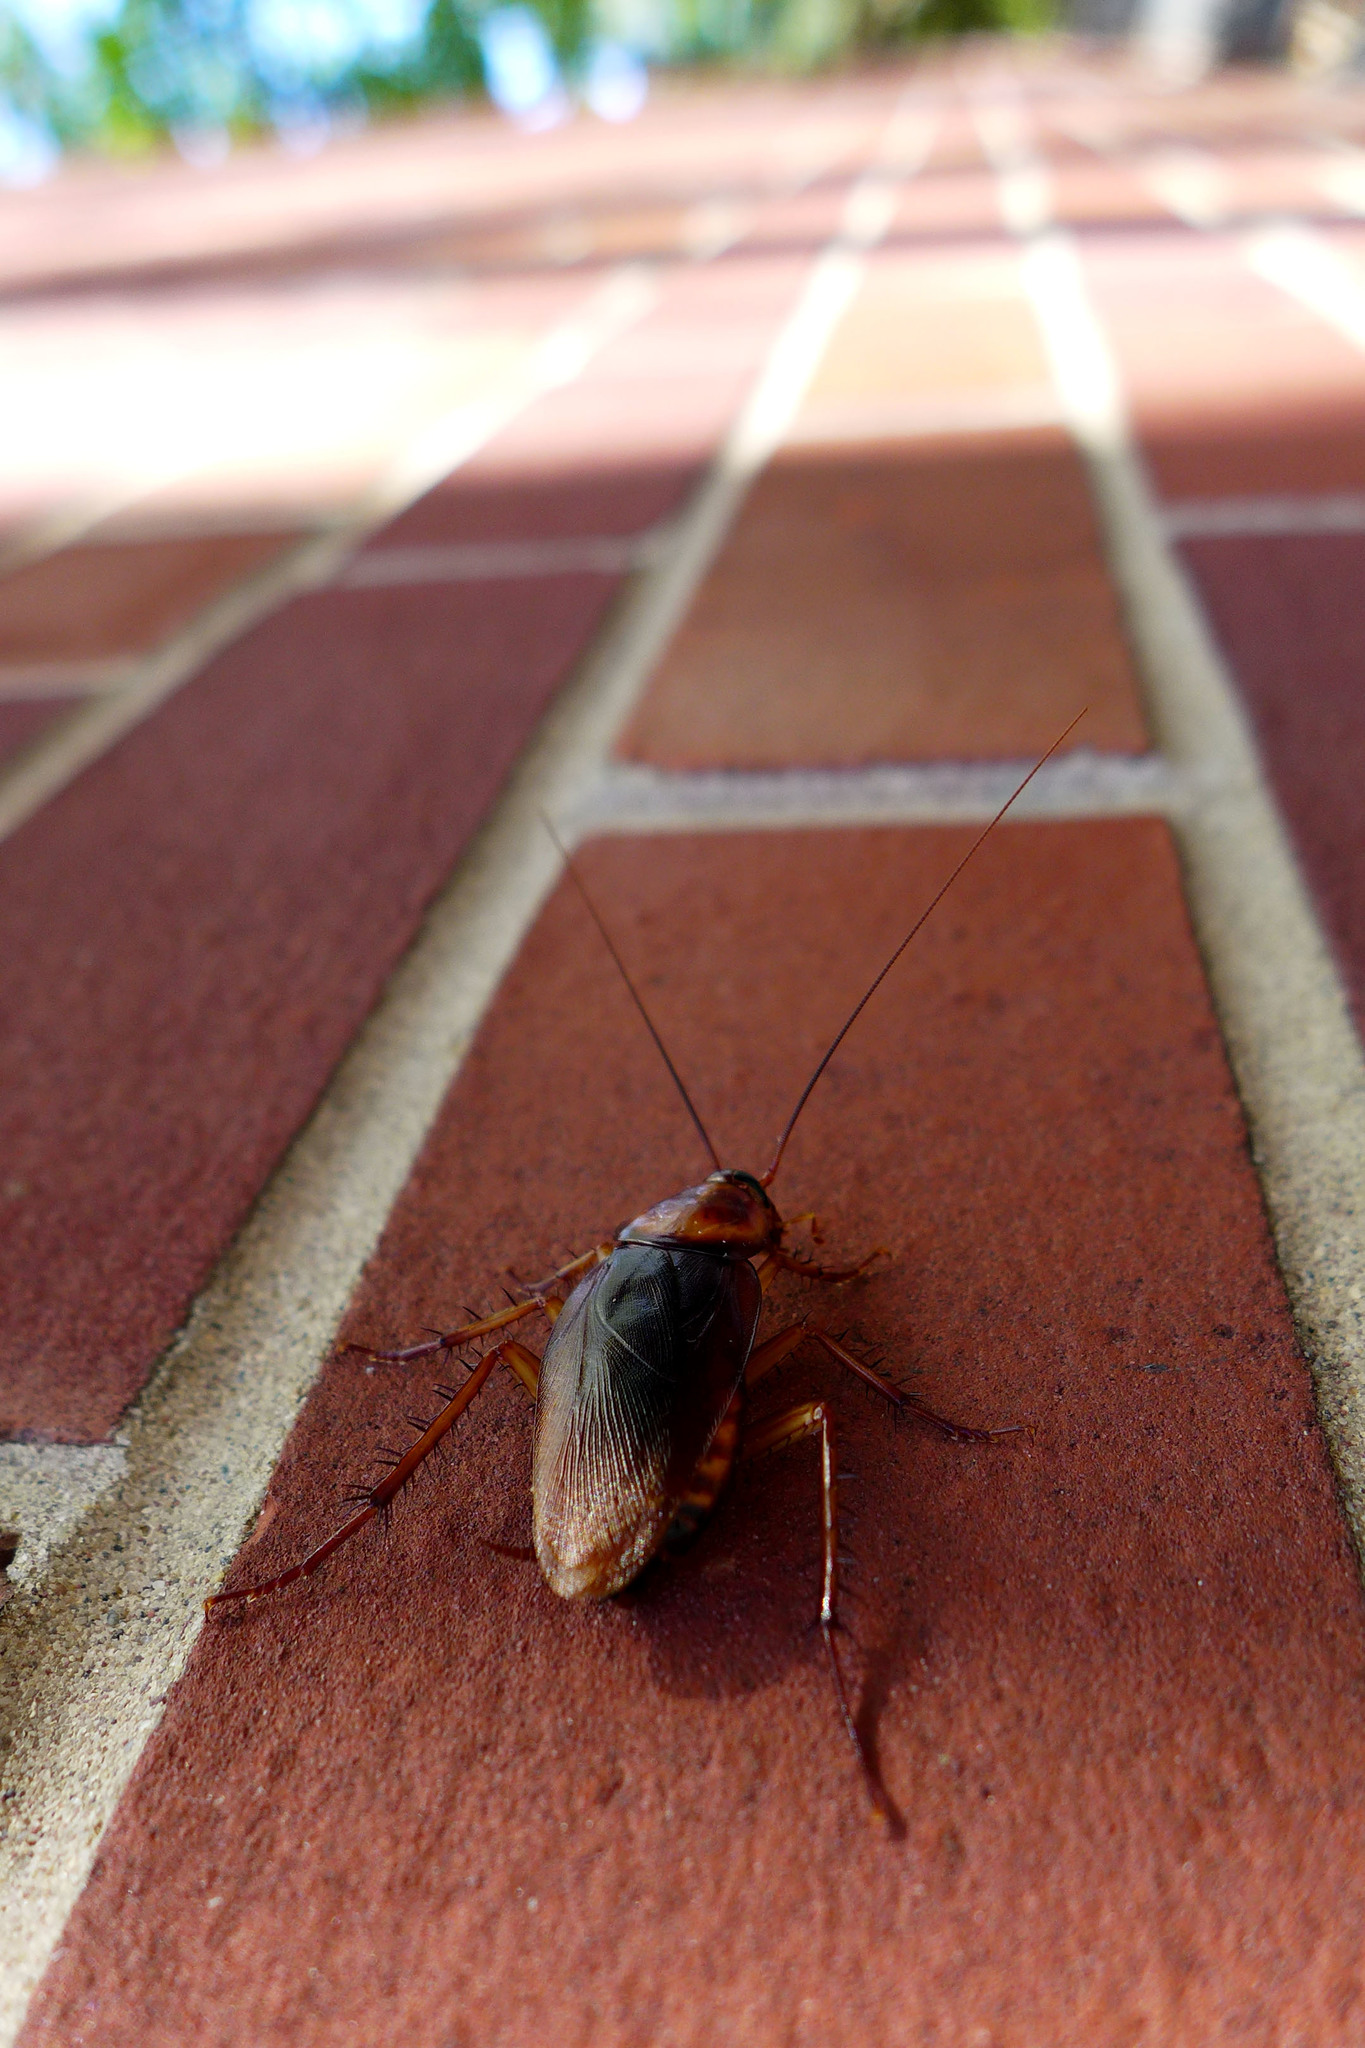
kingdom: Animalia
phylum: Arthropoda
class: Insecta
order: Blattodea
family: Blattidae
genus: Periplaneta
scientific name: Periplaneta americana
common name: American cockroach
